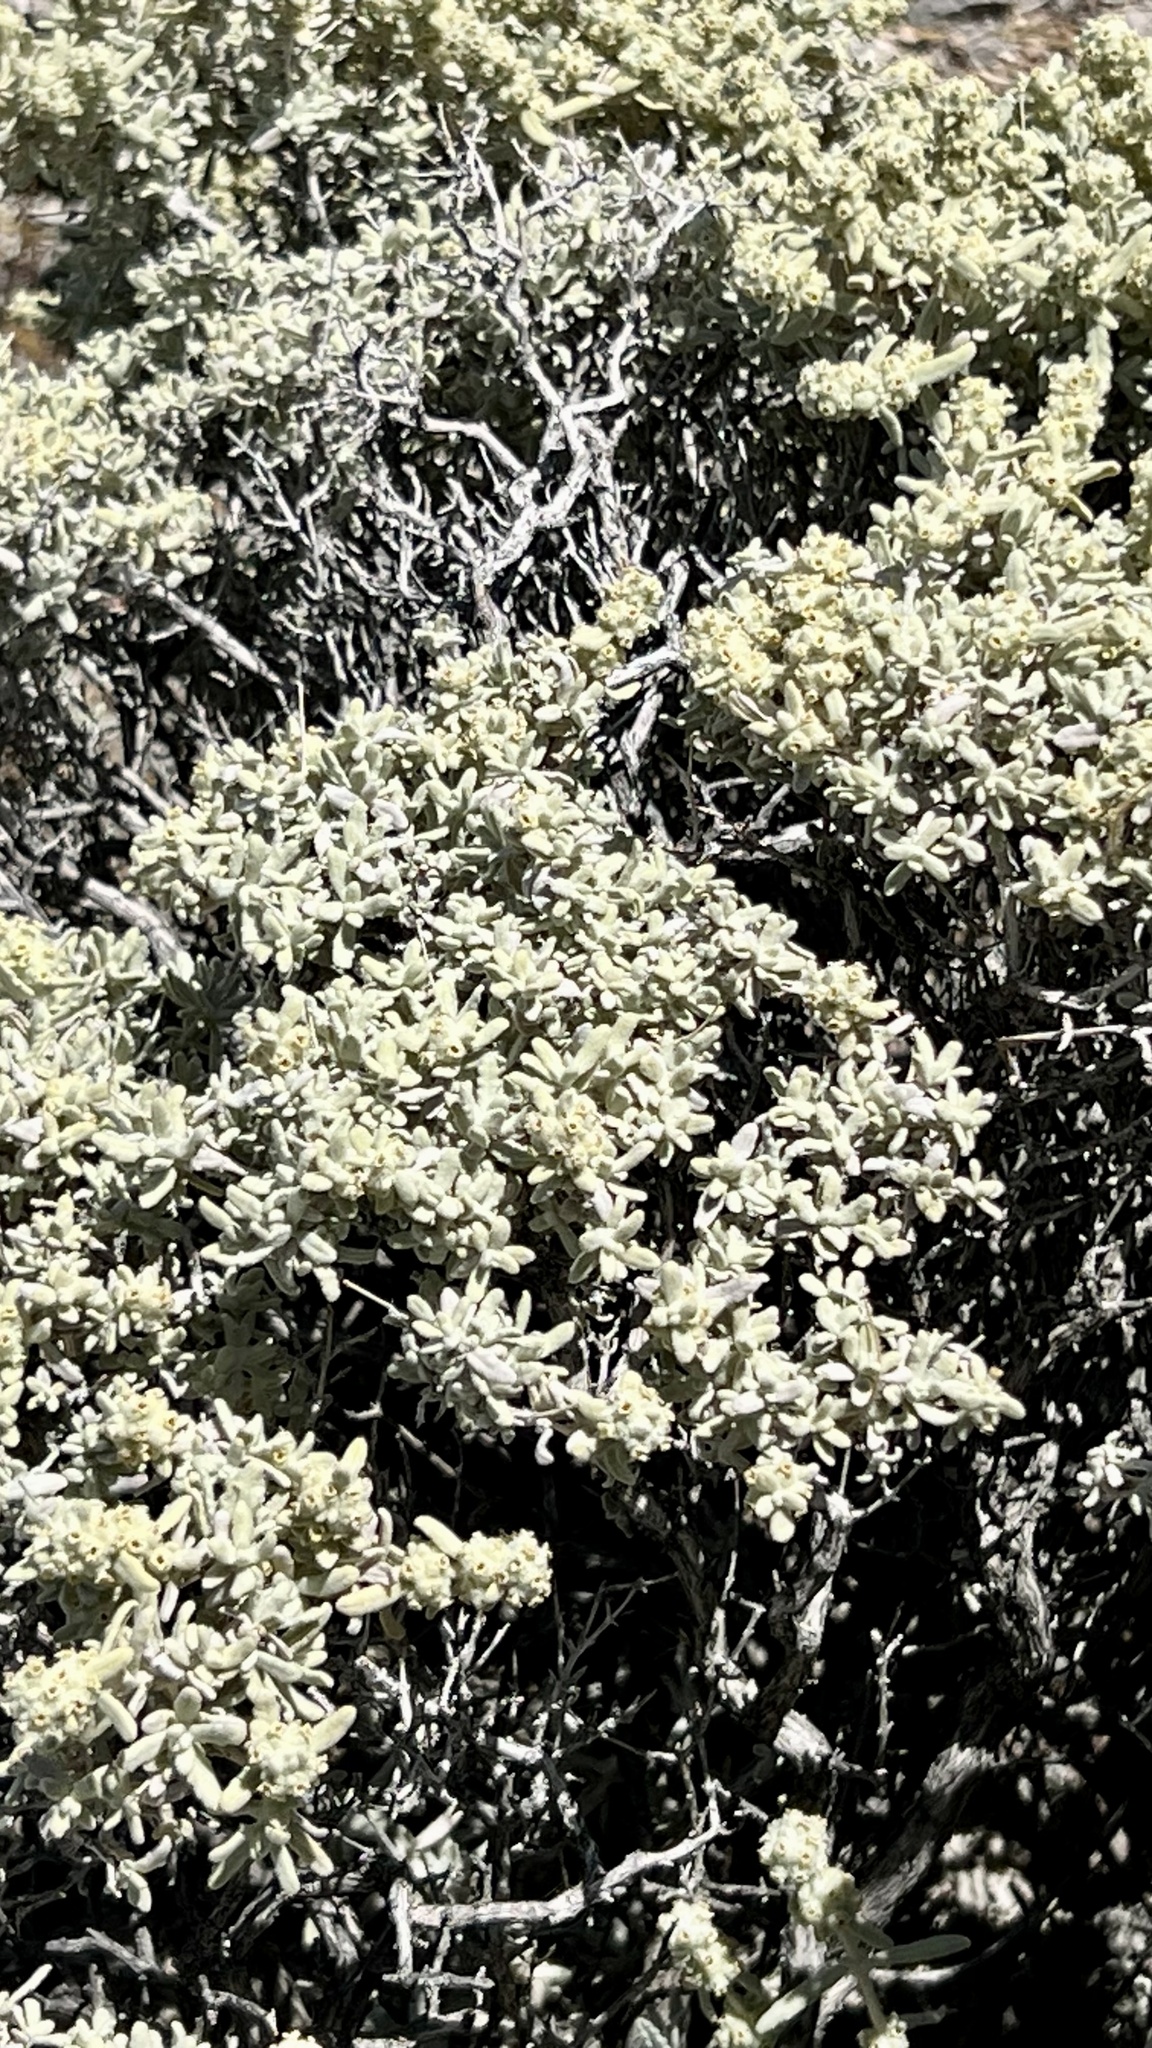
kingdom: Plantae
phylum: Tracheophyta
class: Magnoliopsida
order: Lamiales
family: Scrophulariaceae
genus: Buddleja
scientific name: Buddleja utahensis
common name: Utah butterfly-bush
